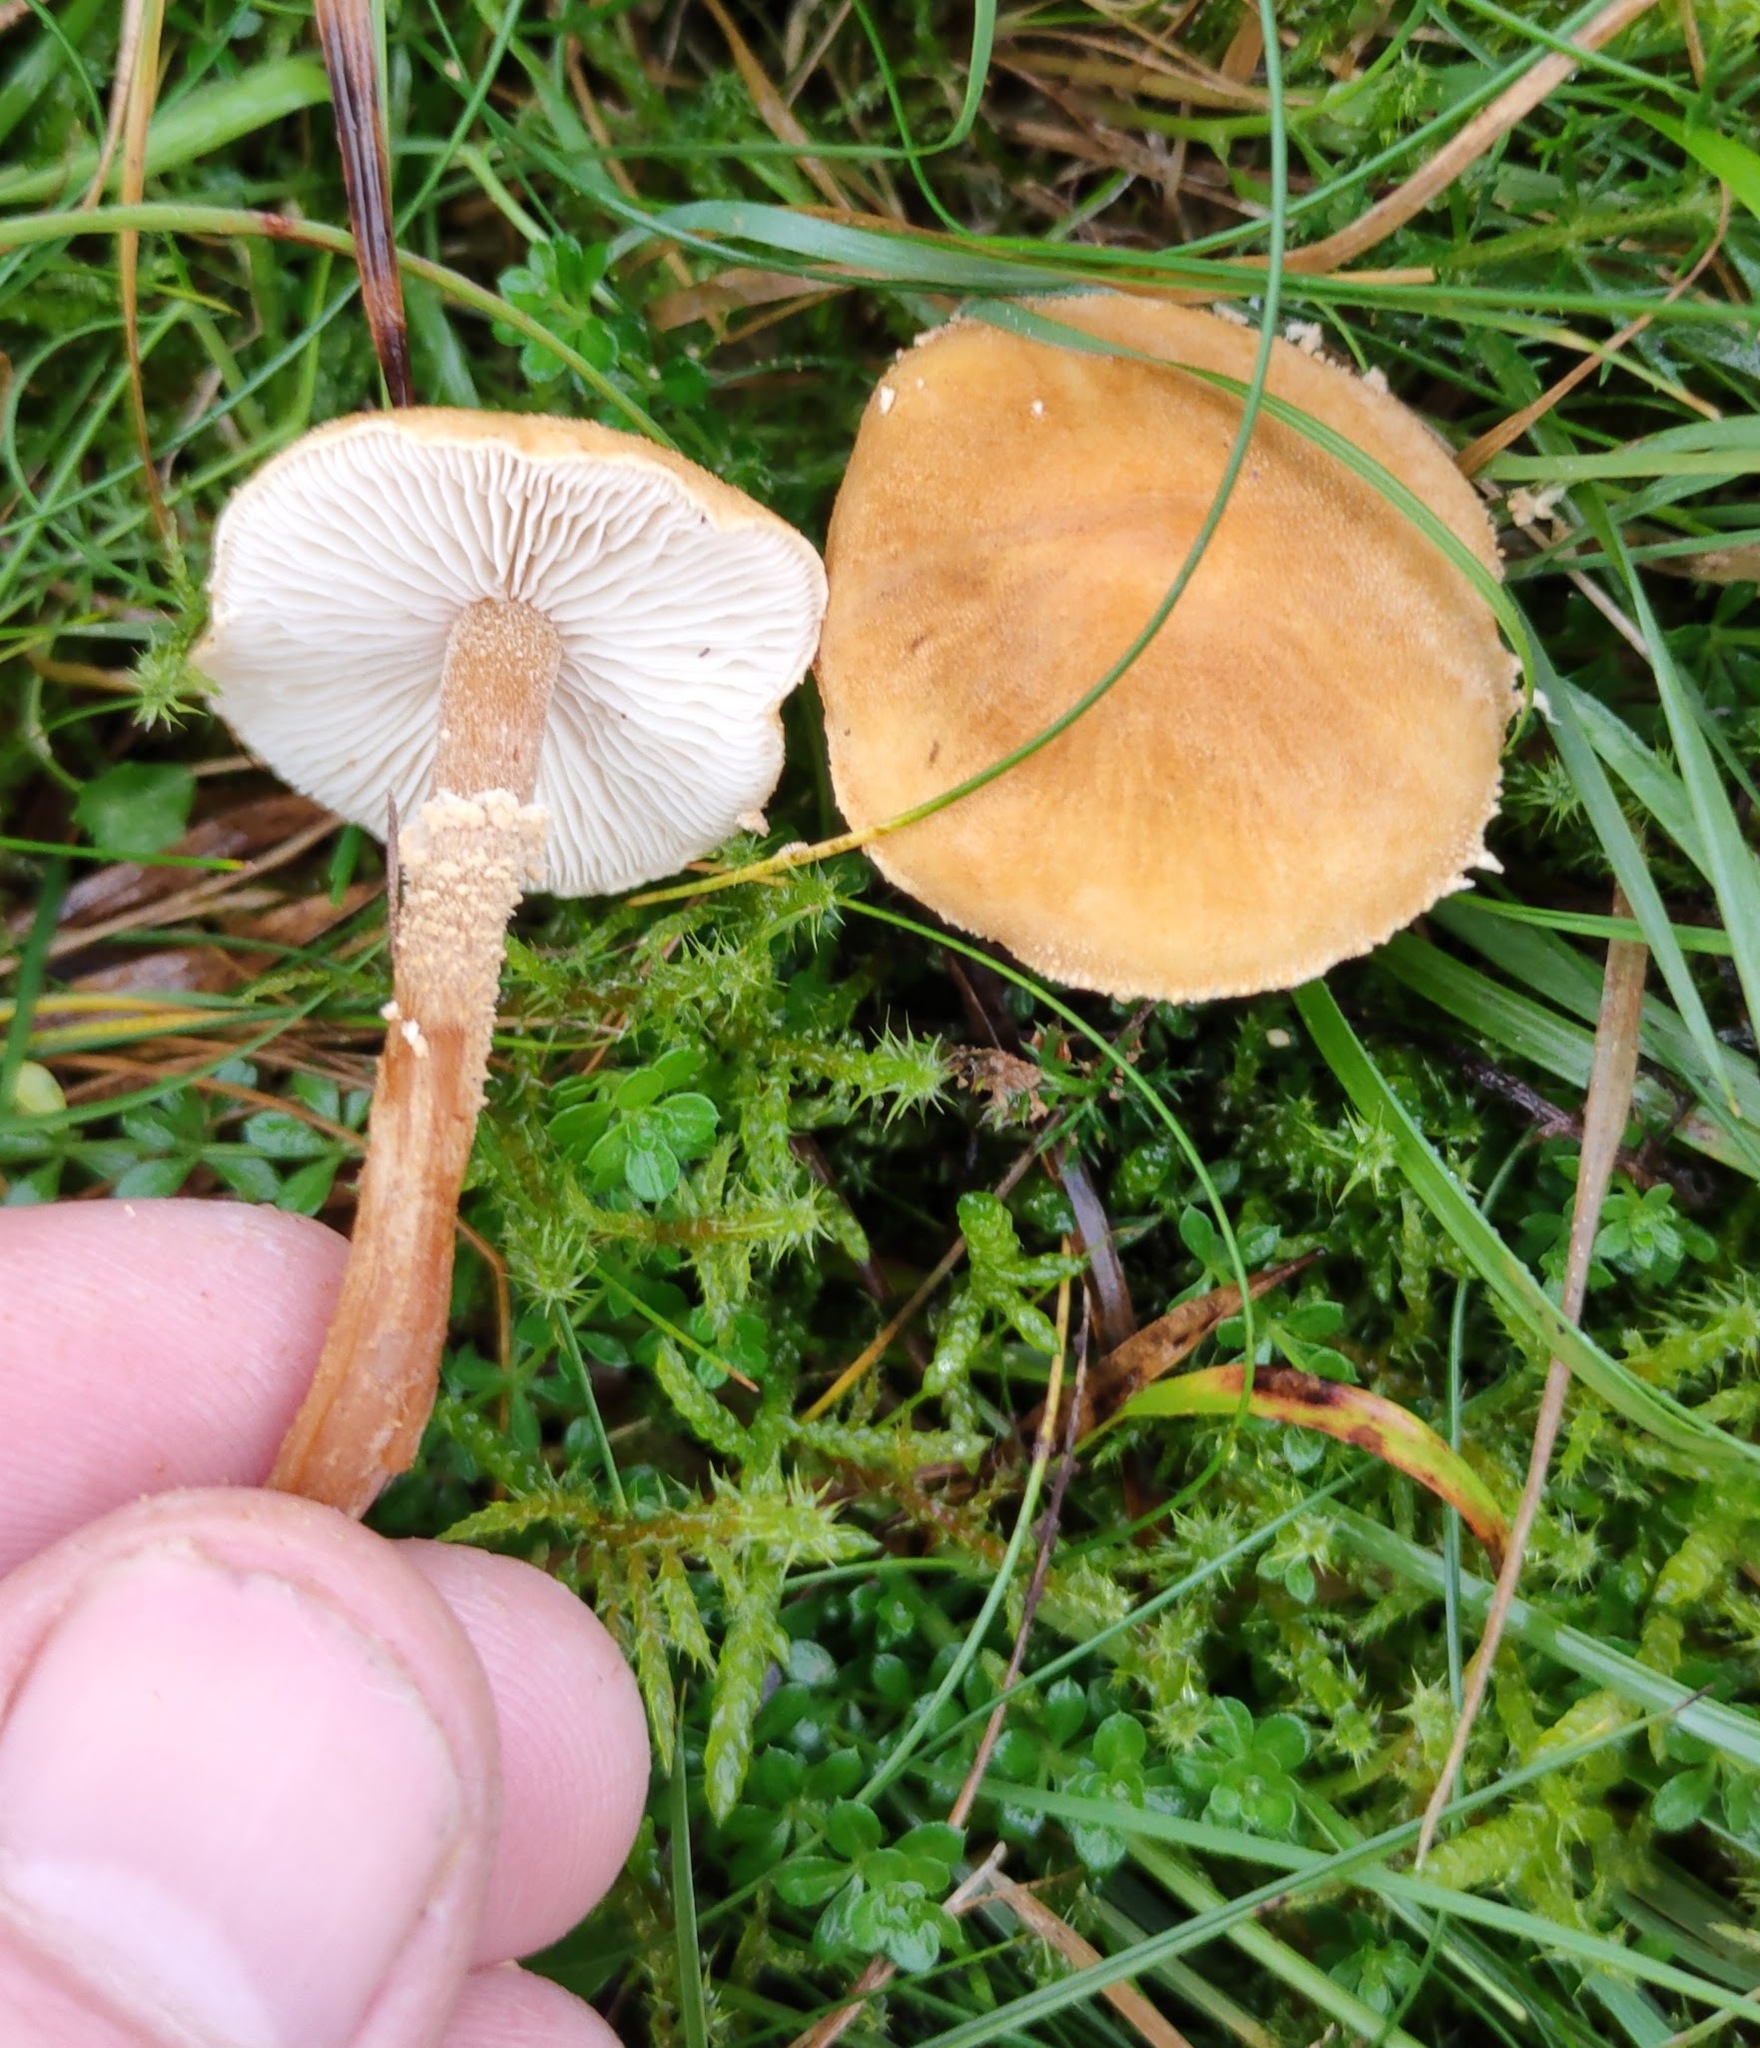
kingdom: Fungi
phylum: Basidiomycota
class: Agaricomycetes
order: Agaricales
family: Tricholomataceae
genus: Cystoderma
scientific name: Cystoderma amianthinum
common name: Earthy powdercap
